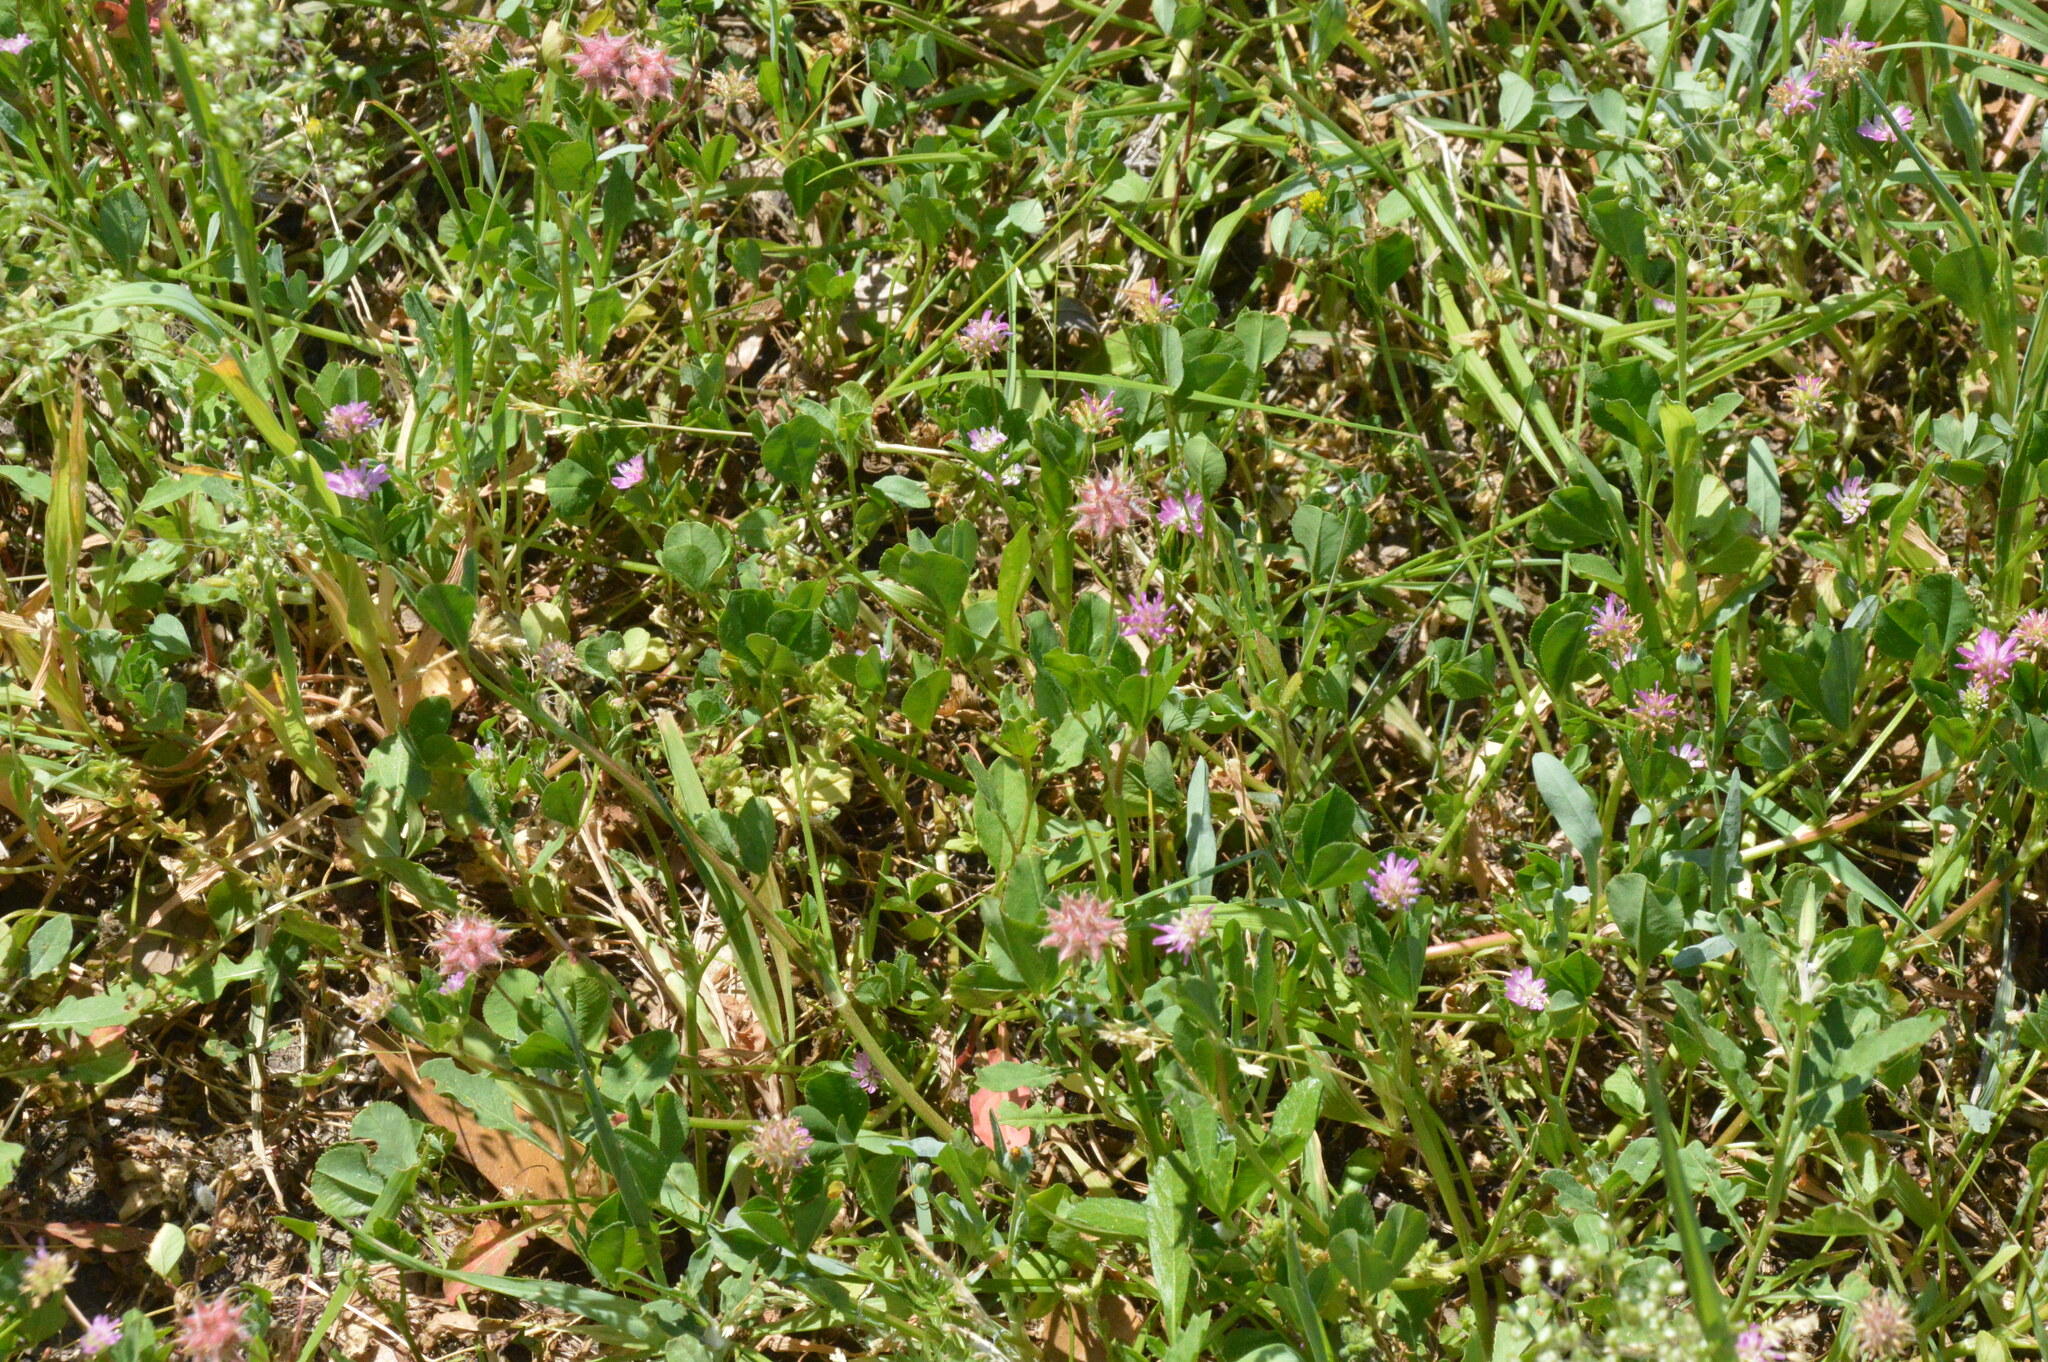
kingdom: Plantae
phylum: Tracheophyta
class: Magnoliopsida
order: Fabales
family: Fabaceae
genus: Trifolium
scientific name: Trifolium resupinatum
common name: Reversed clover
